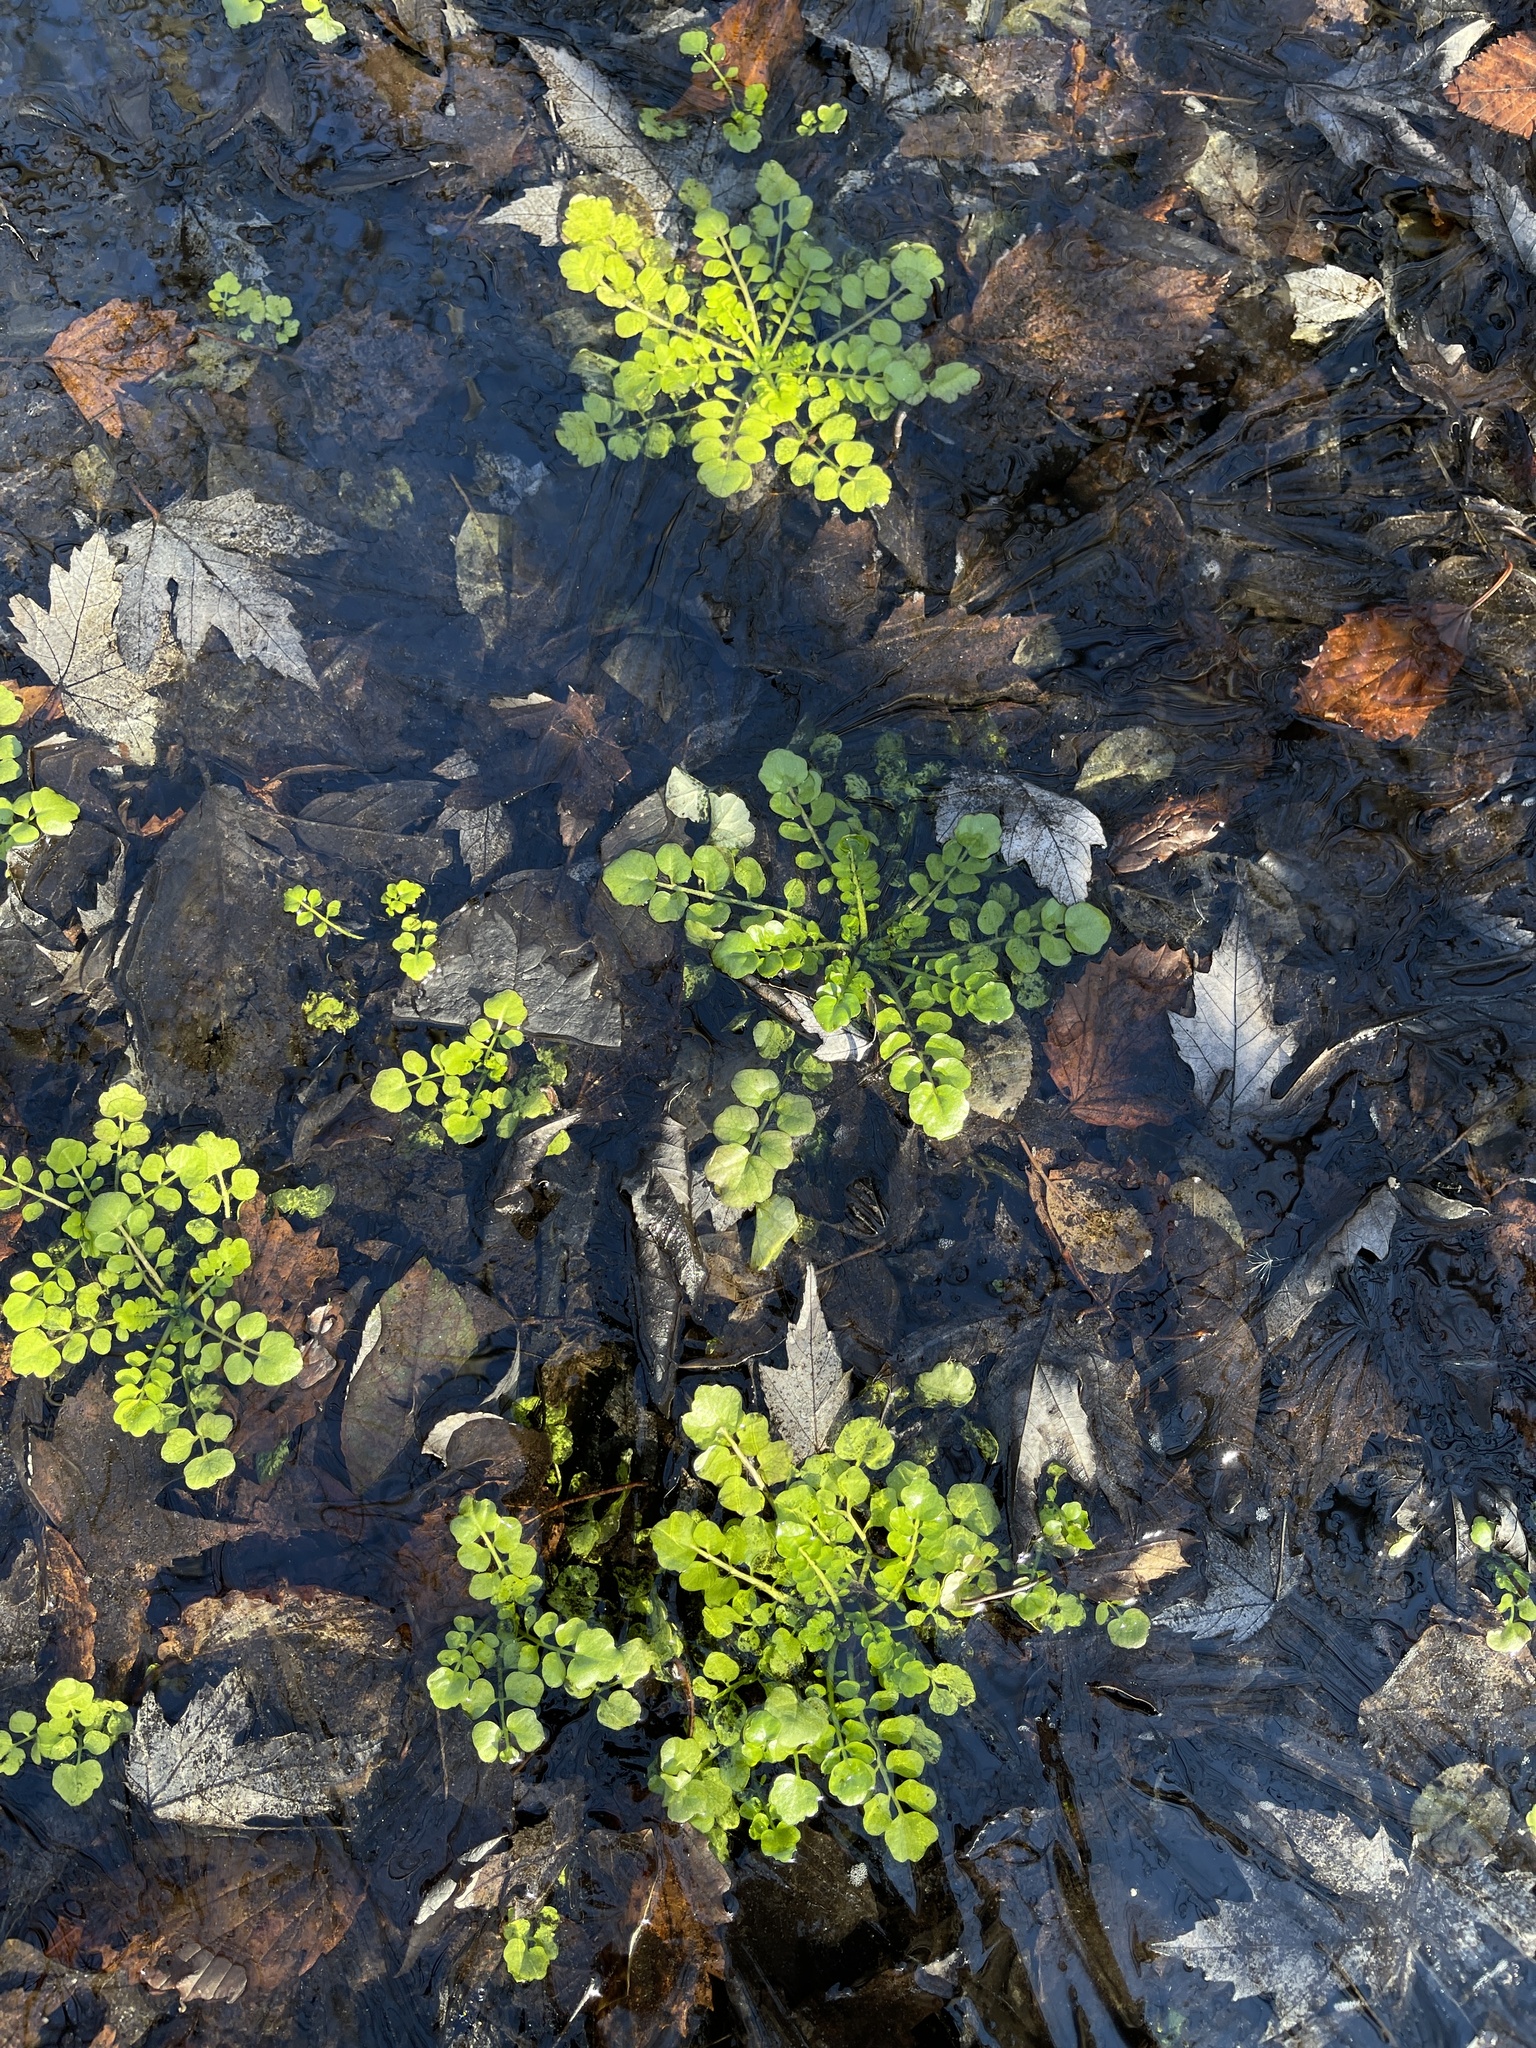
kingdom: Plantae
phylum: Tracheophyta
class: Magnoliopsida
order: Brassicales
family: Brassicaceae
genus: Cardamine
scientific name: Cardamine pensylvanica
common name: Pennsylvania bittercress
